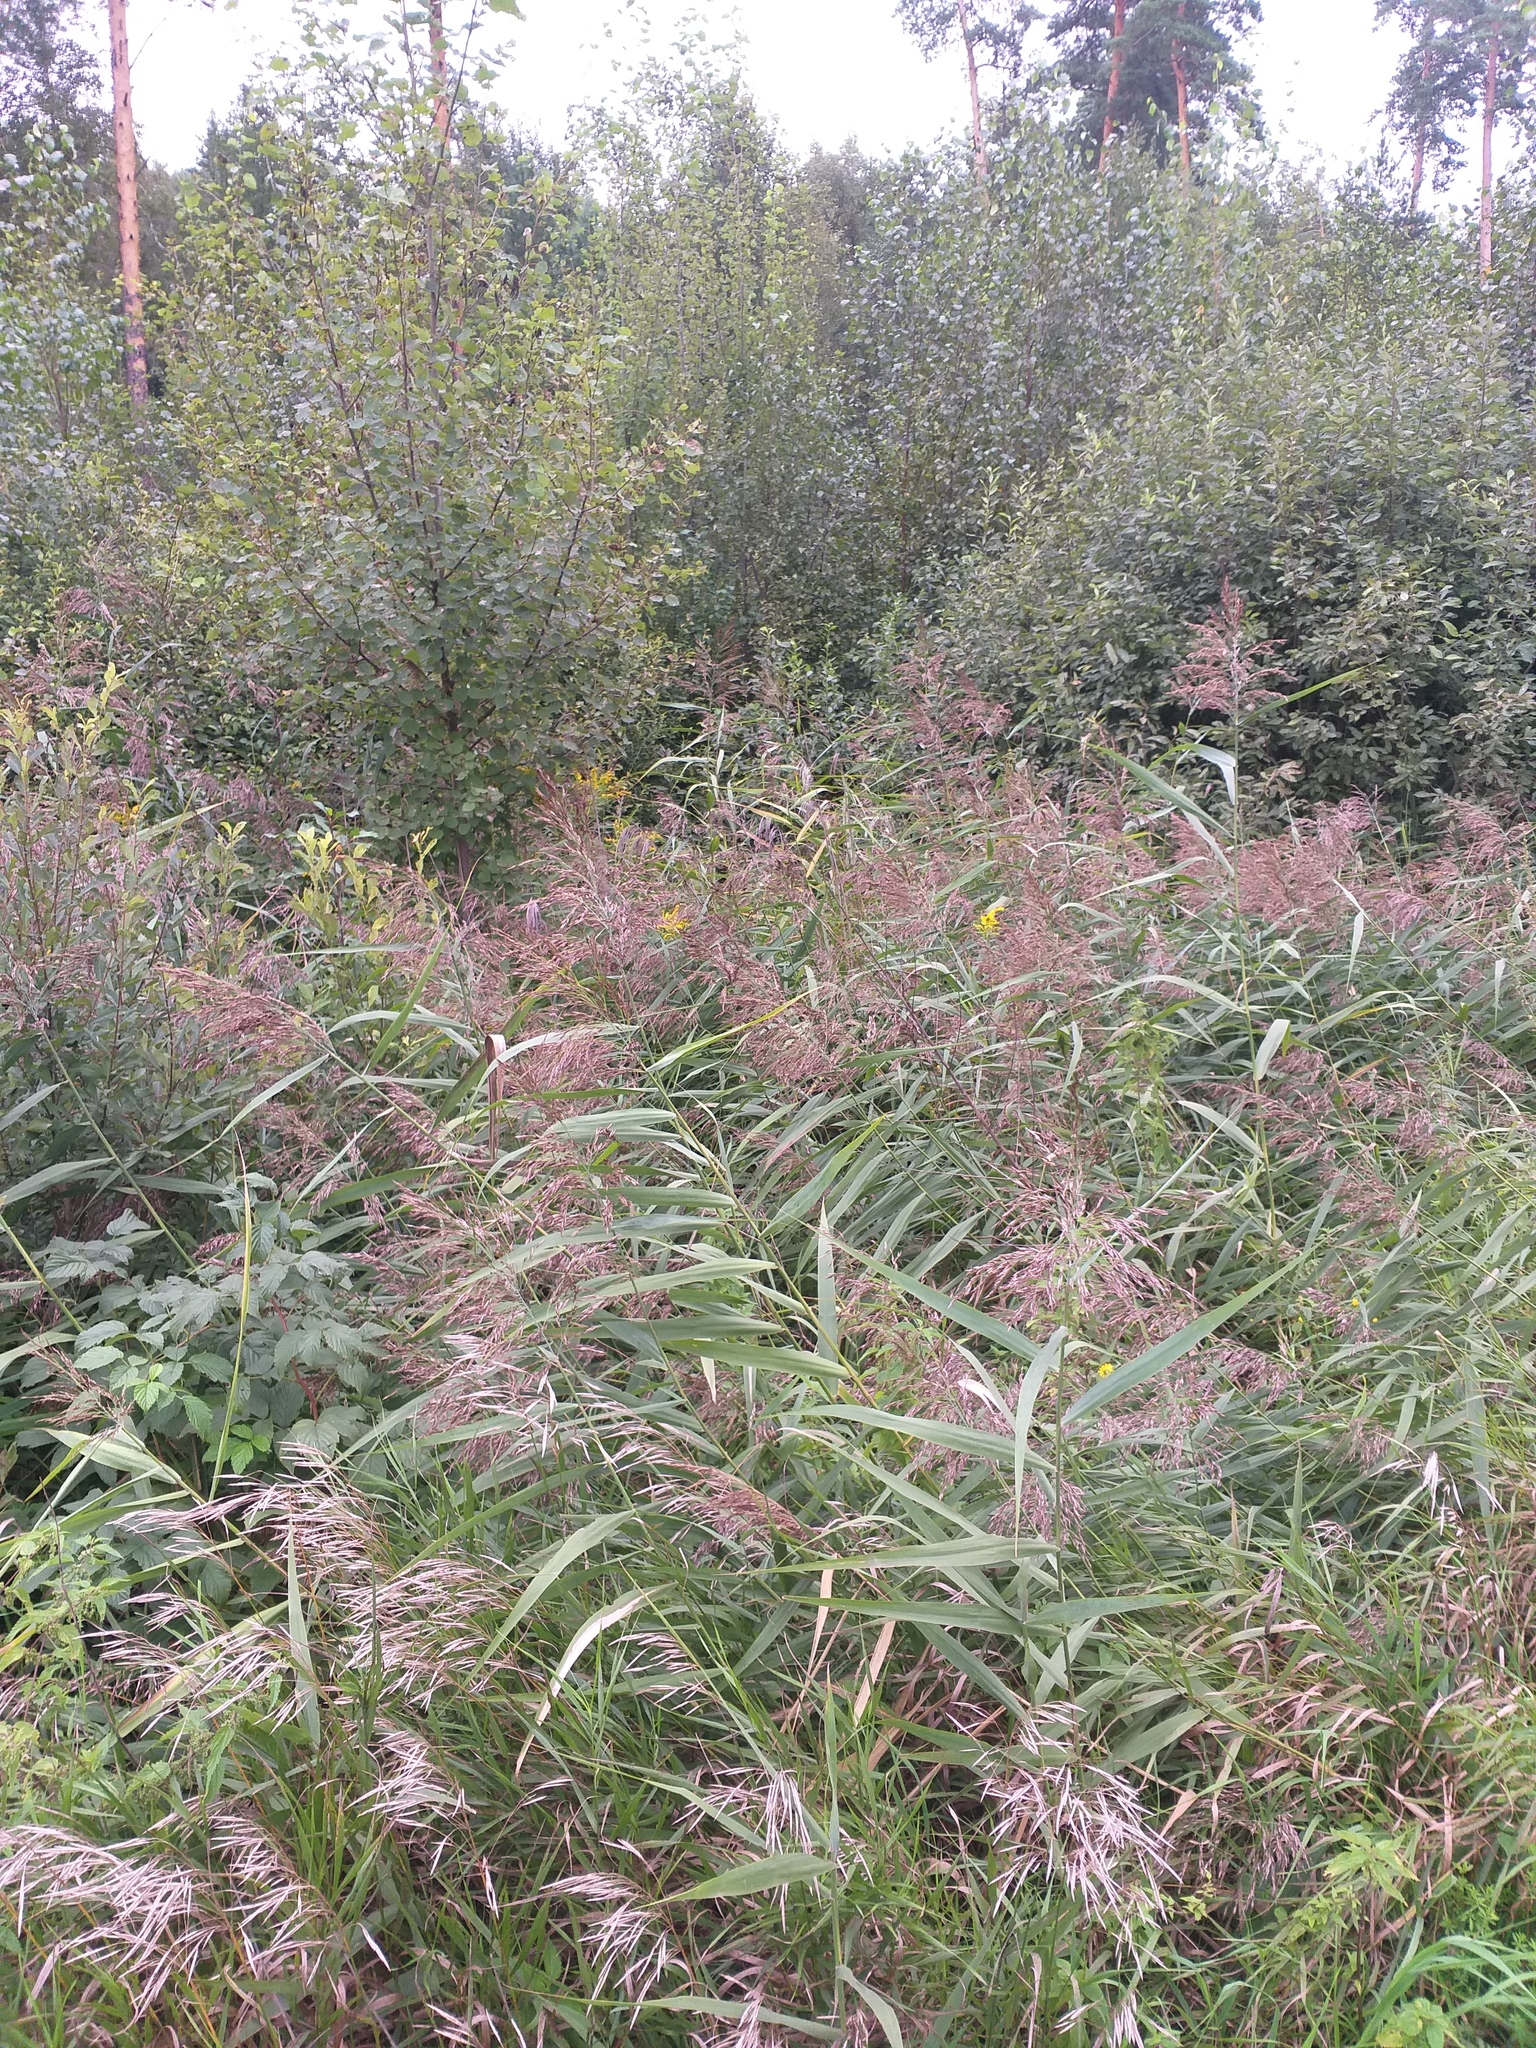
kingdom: Plantae
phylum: Tracheophyta
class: Liliopsida
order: Poales
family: Poaceae
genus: Phragmites
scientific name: Phragmites australis
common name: Common reed
